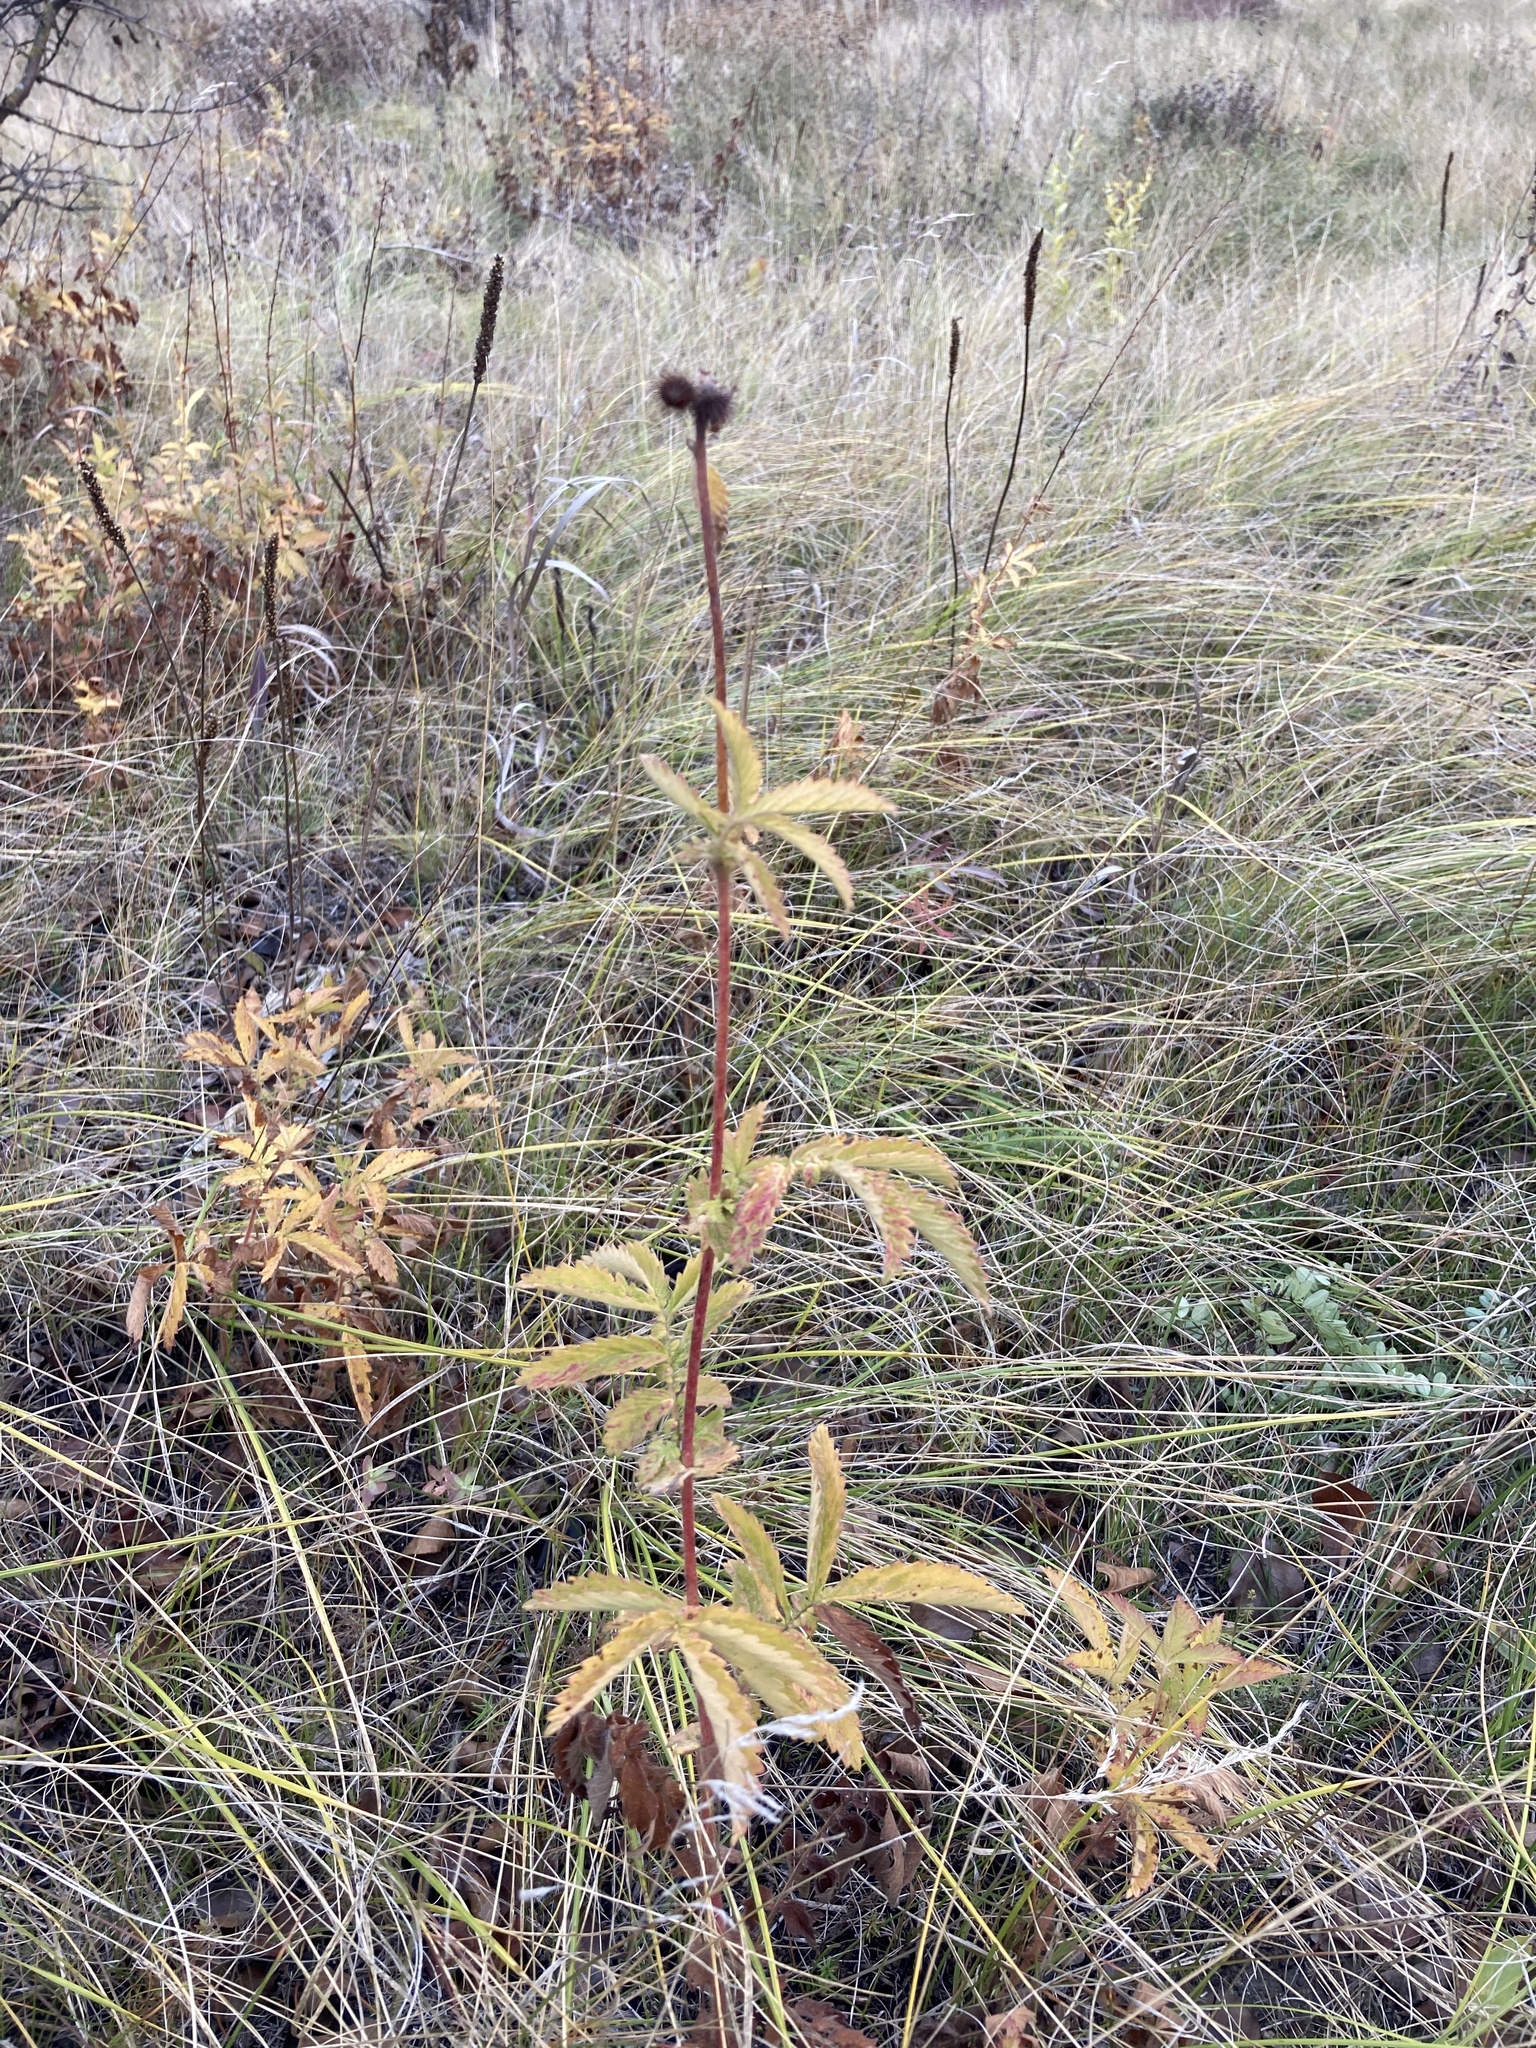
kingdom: Plantae
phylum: Tracheophyta
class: Magnoliopsida
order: Rosales
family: Rosaceae
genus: Agrimonia
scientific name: Agrimonia eupatoria
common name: Agrimony
